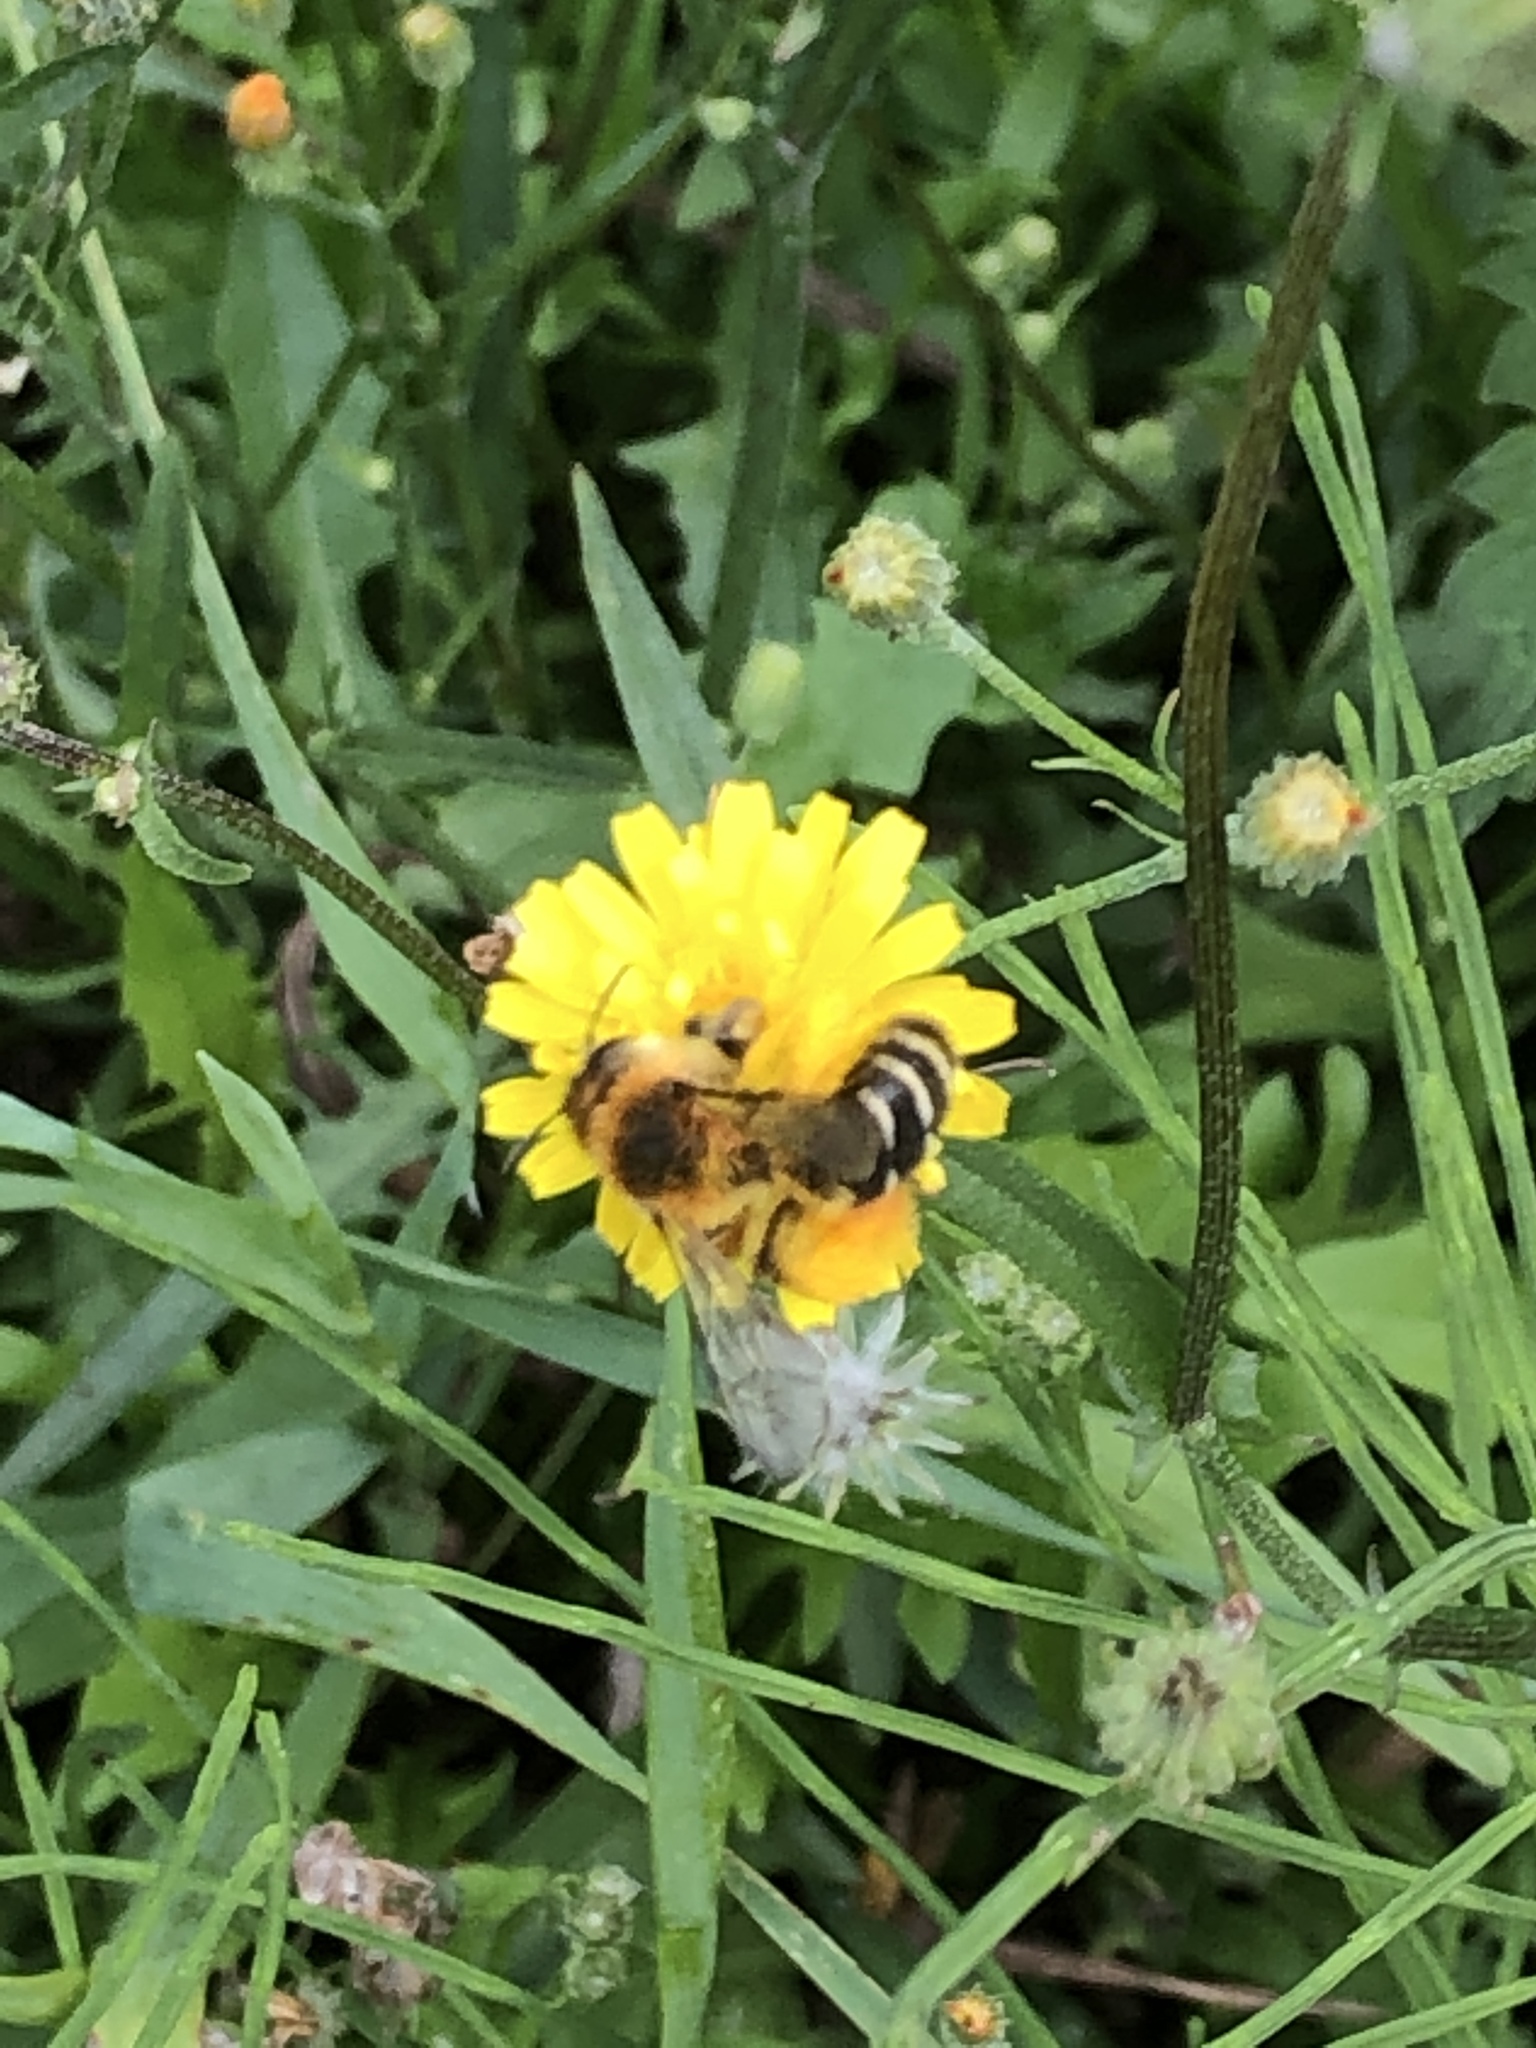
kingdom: Animalia
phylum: Arthropoda
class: Insecta
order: Hymenoptera
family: Apidae
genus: Apis
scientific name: Apis mellifera
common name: Honey bee
